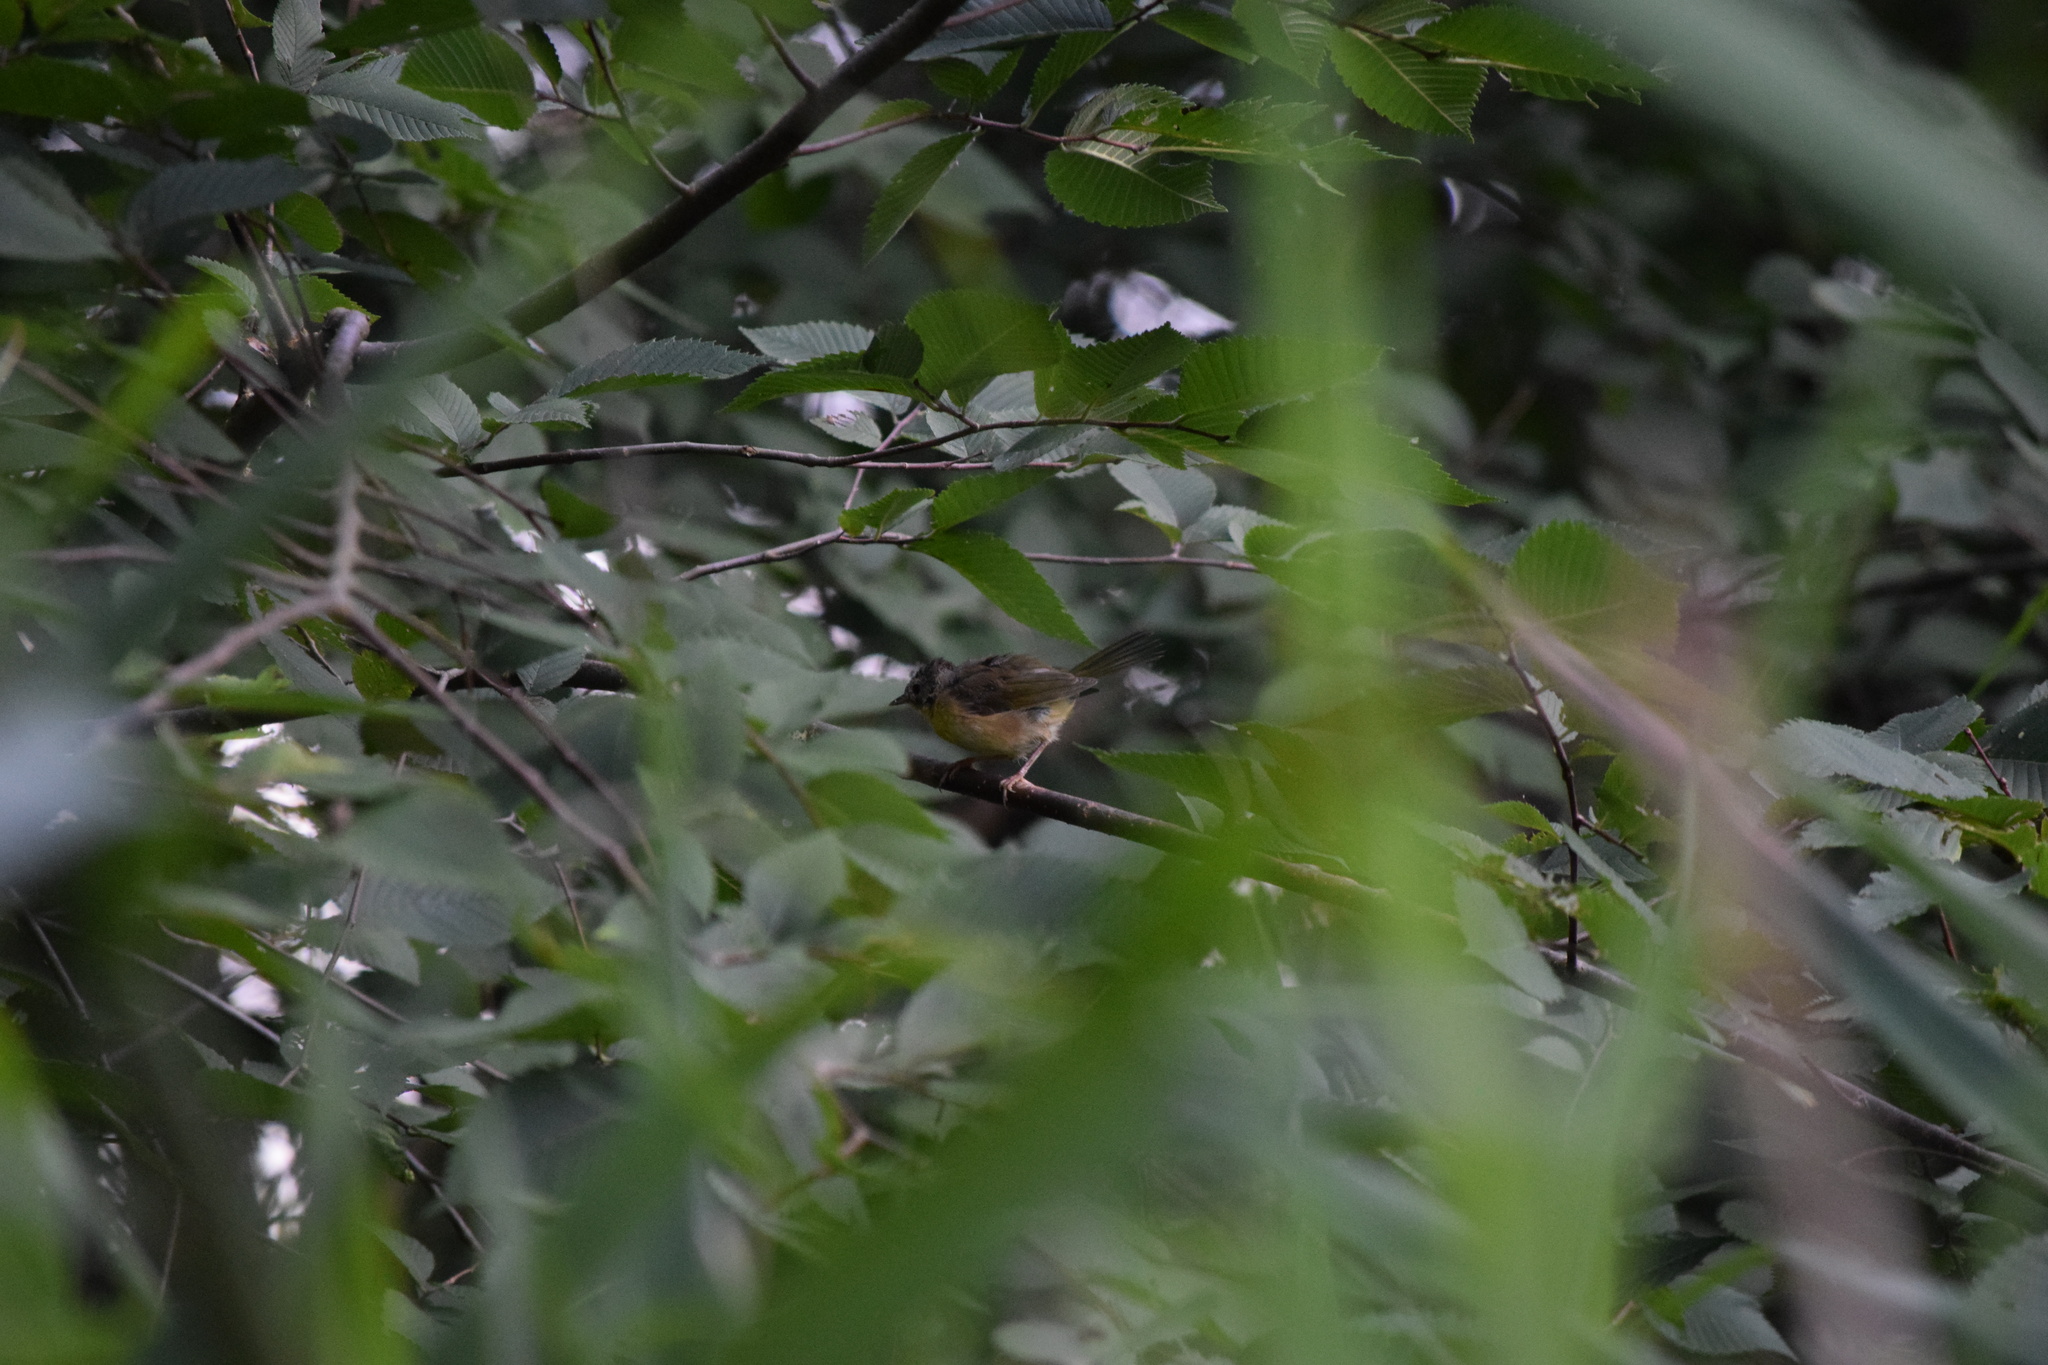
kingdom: Animalia
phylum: Chordata
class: Aves
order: Passeriformes
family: Parulidae
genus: Geothlypis
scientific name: Geothlypis trichas
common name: Common yellowthroat
